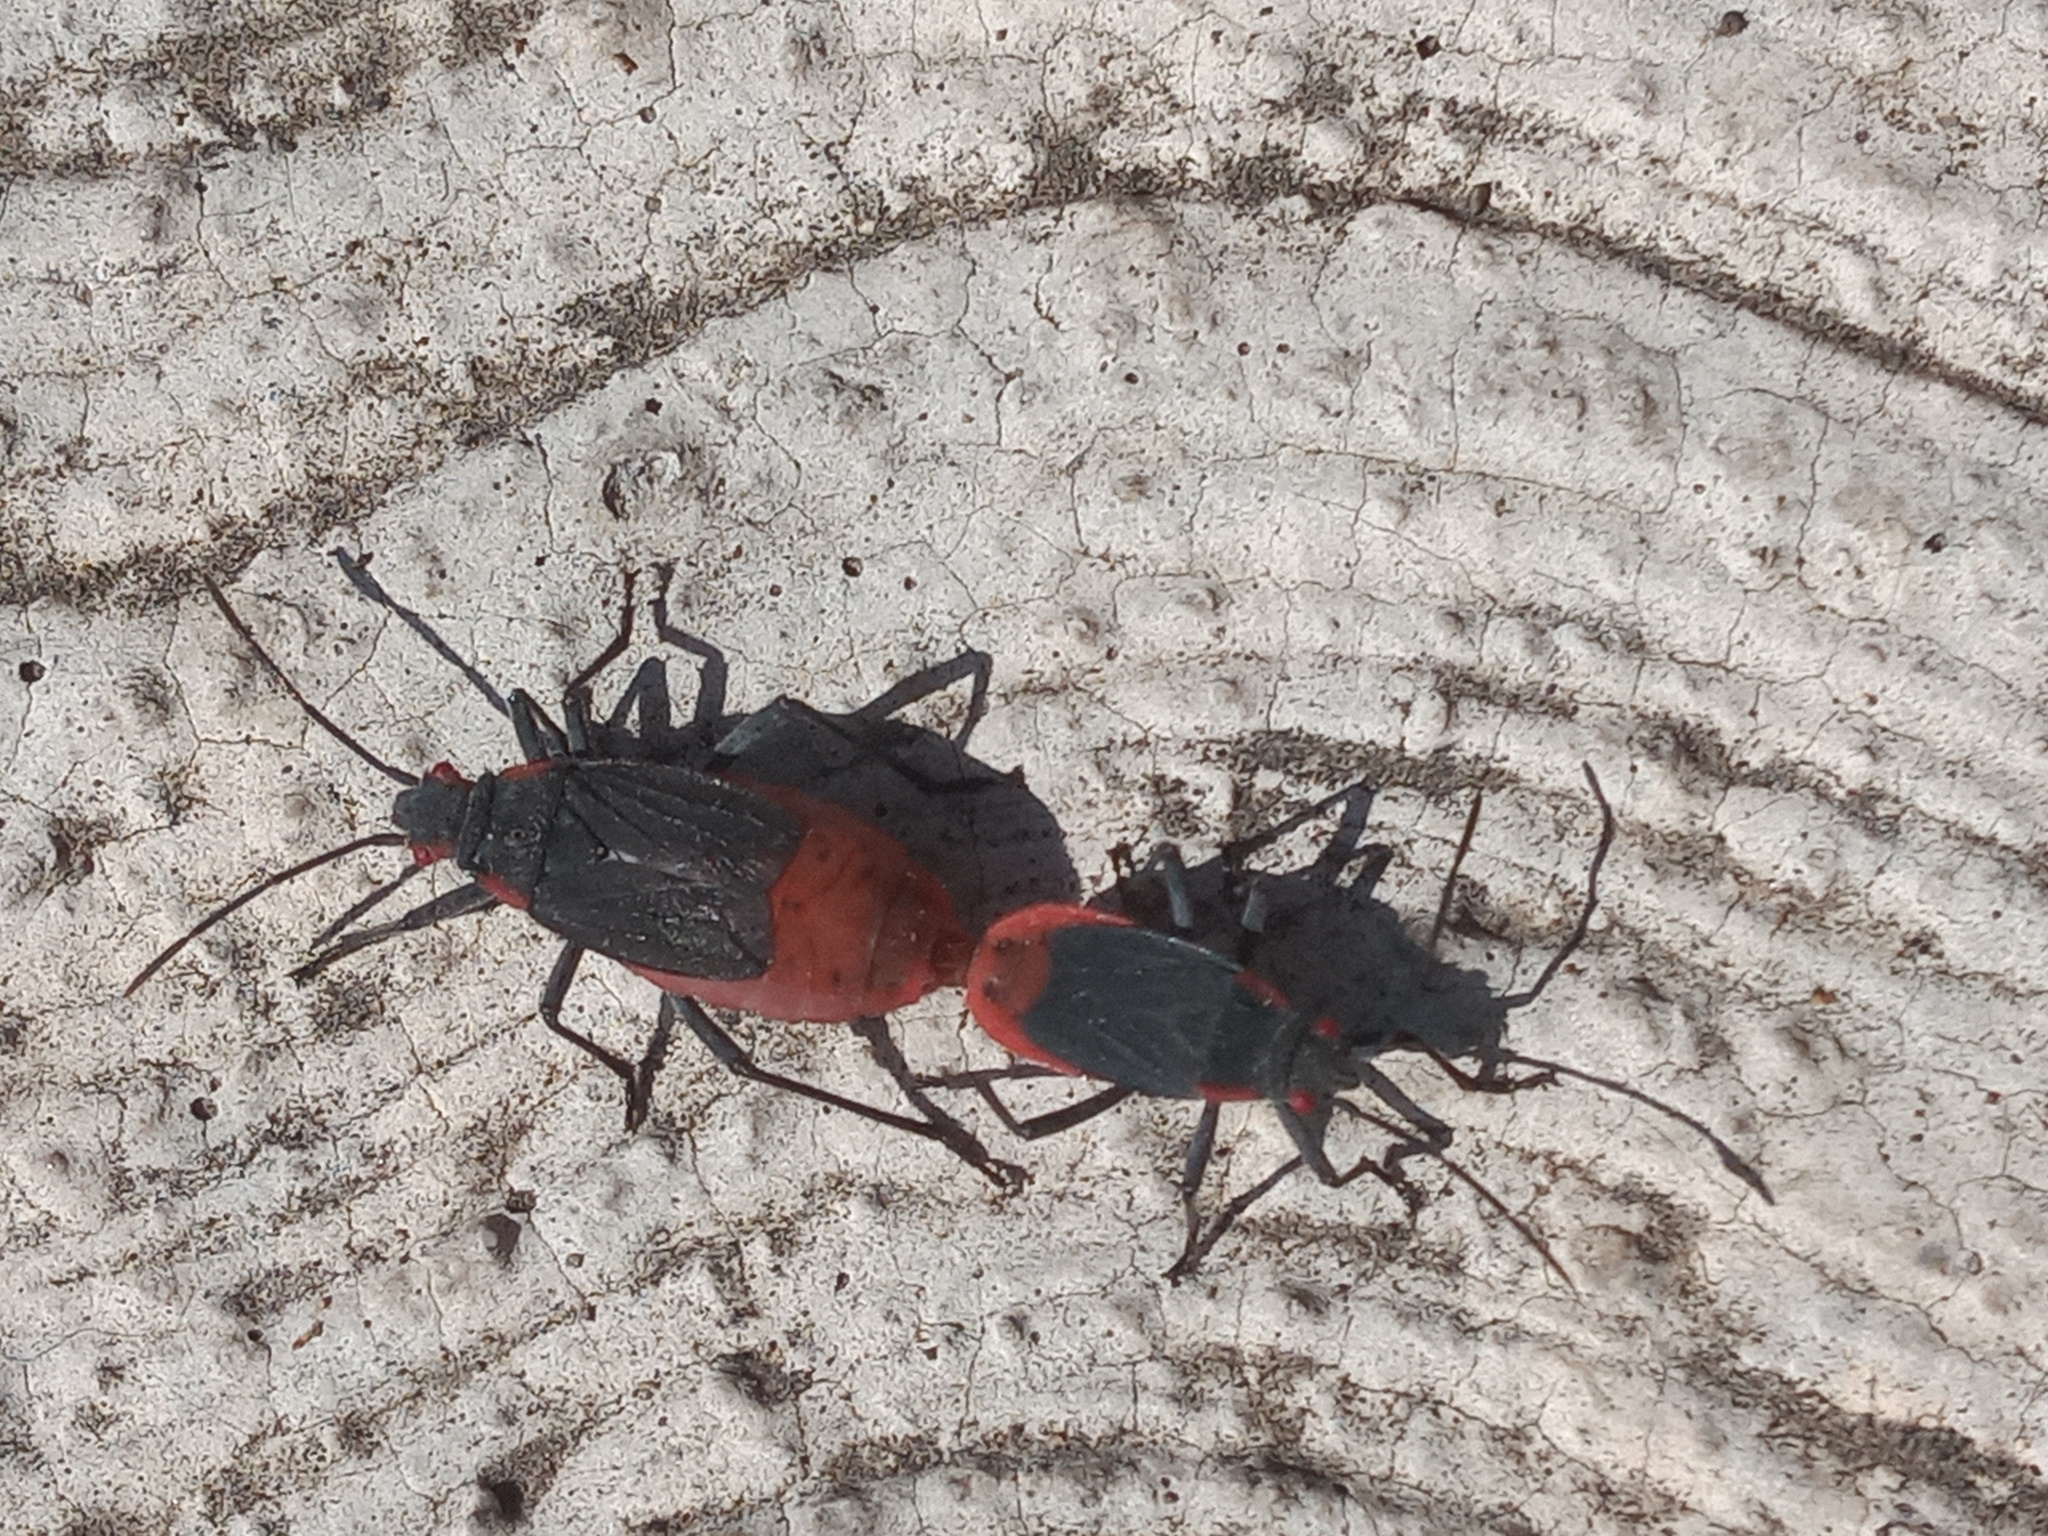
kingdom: Animalia
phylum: Arthropoda
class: Insecta
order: Hemiptera
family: Rhopalidae
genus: Jadera
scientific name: Jadera haematoloma
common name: Red-shouldered bug
